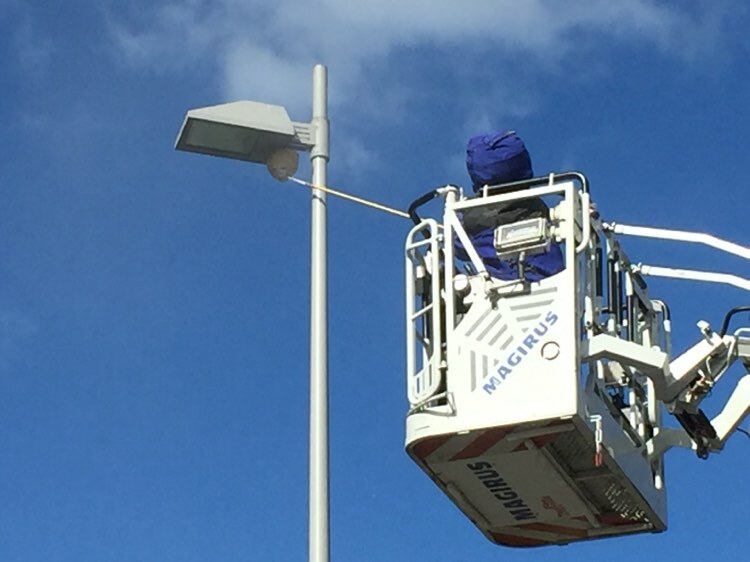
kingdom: Animalia
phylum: Arthropoda
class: Insecta
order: Hymenoptera
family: Vespidae
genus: Vespa
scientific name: Vespa velutina
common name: Asian hornet
